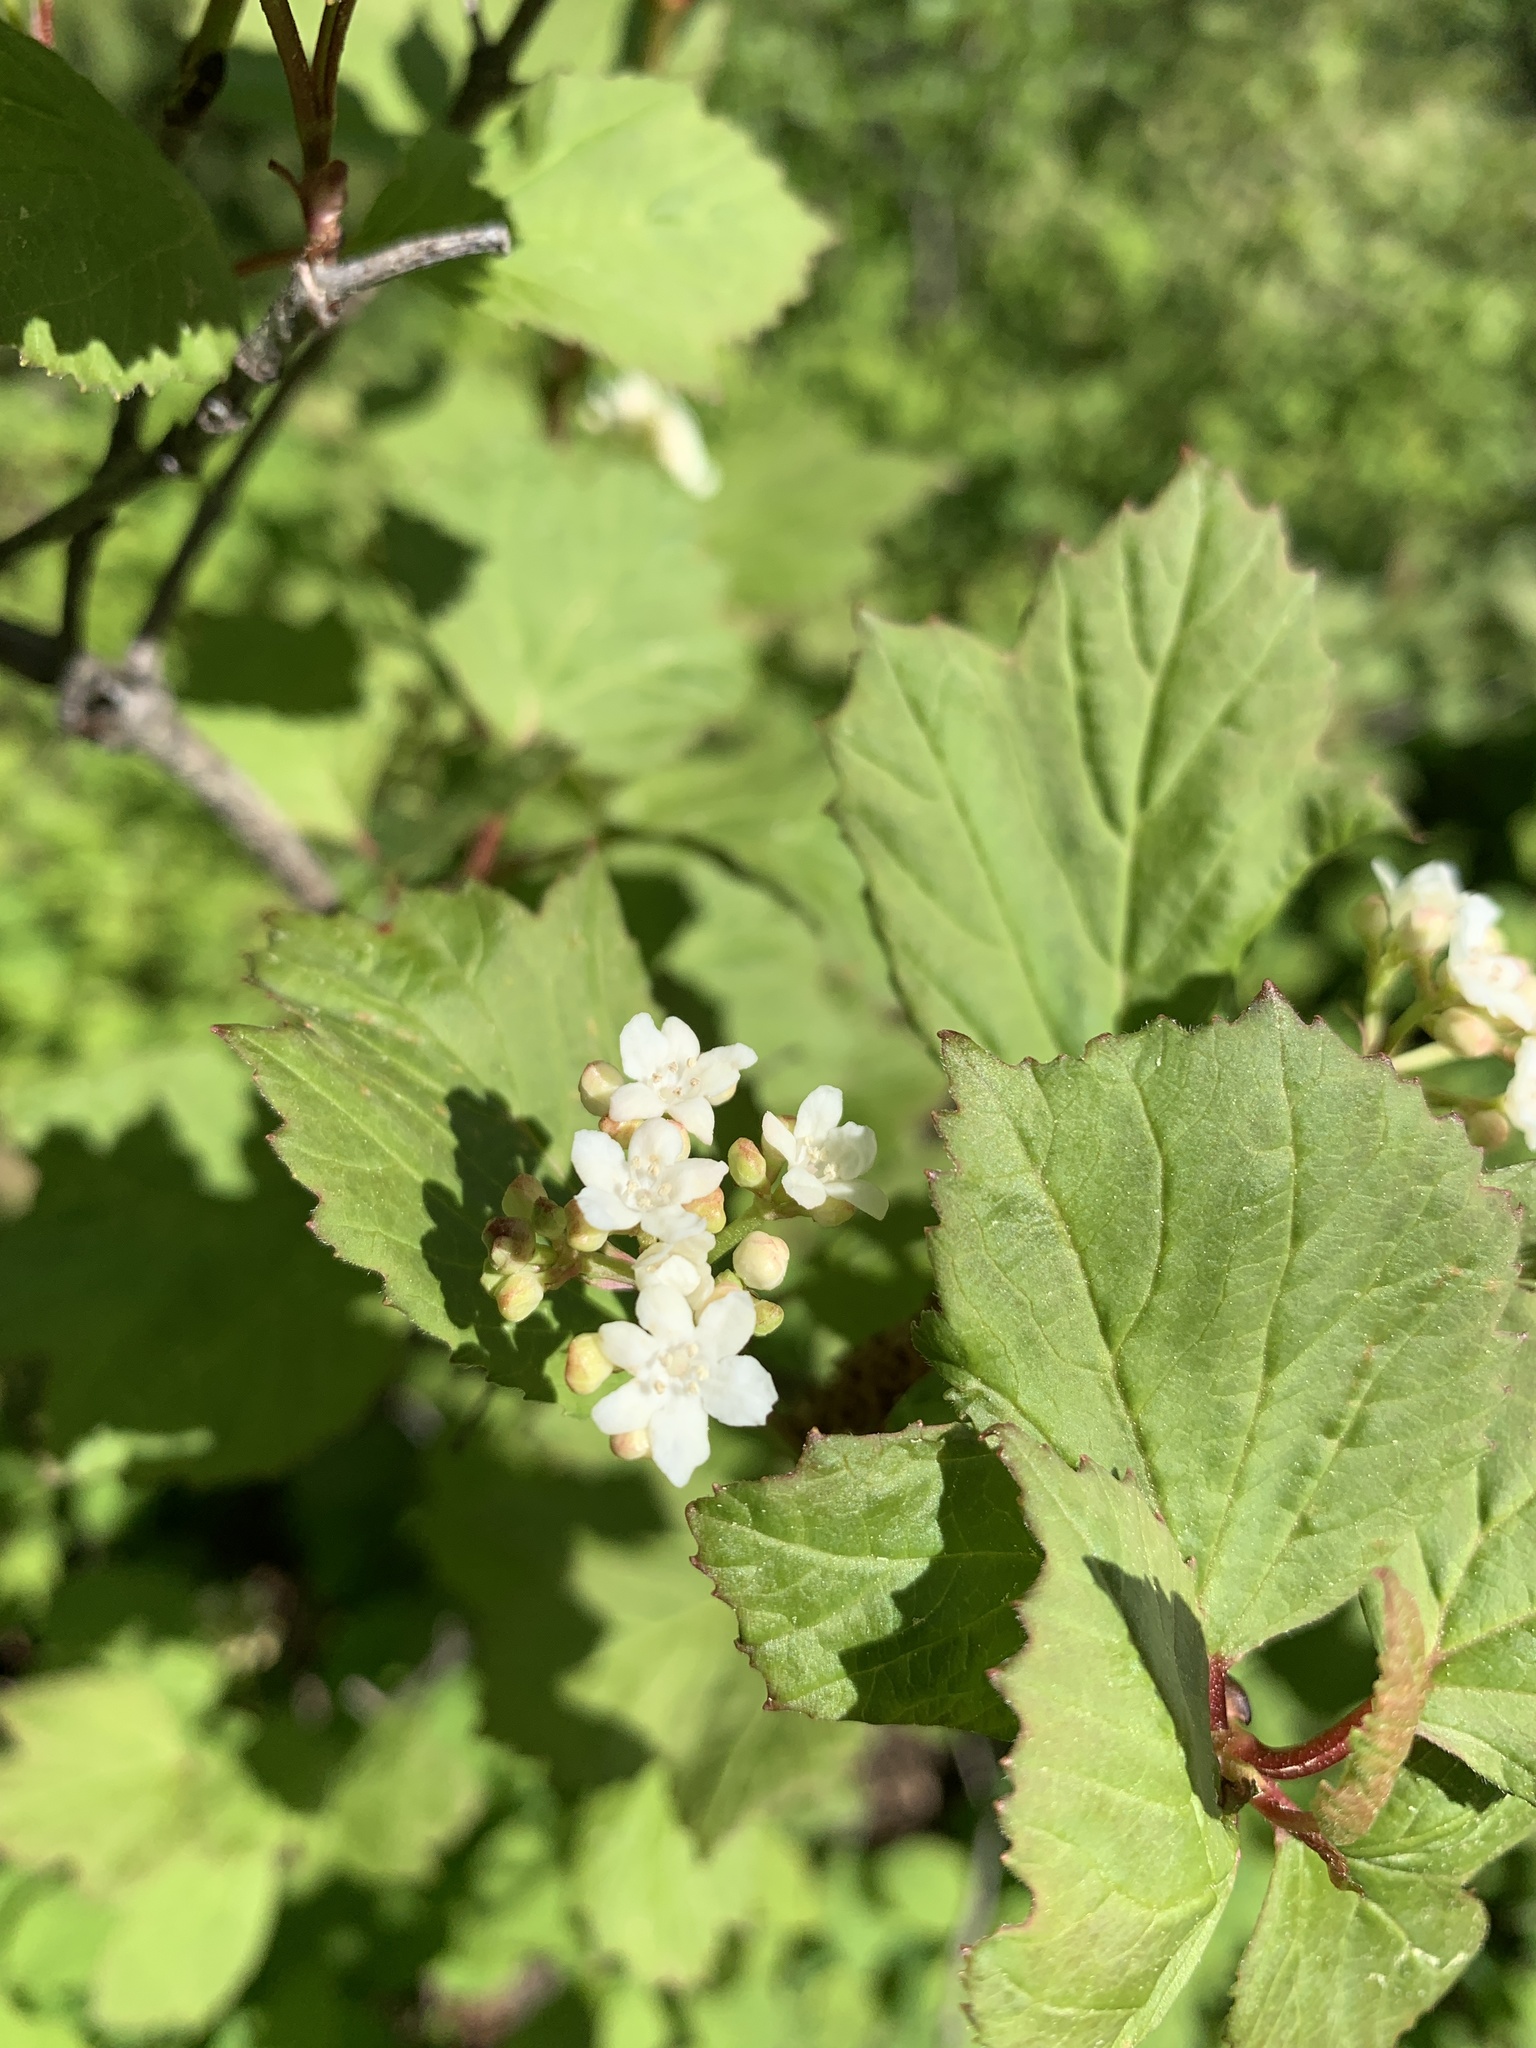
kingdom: Plantae
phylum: Tracheophyta
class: Magnoliopsida
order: Dipsacales
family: Viburnaceae
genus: Viburnum
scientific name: Viburnum edule
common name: Mooseberry
